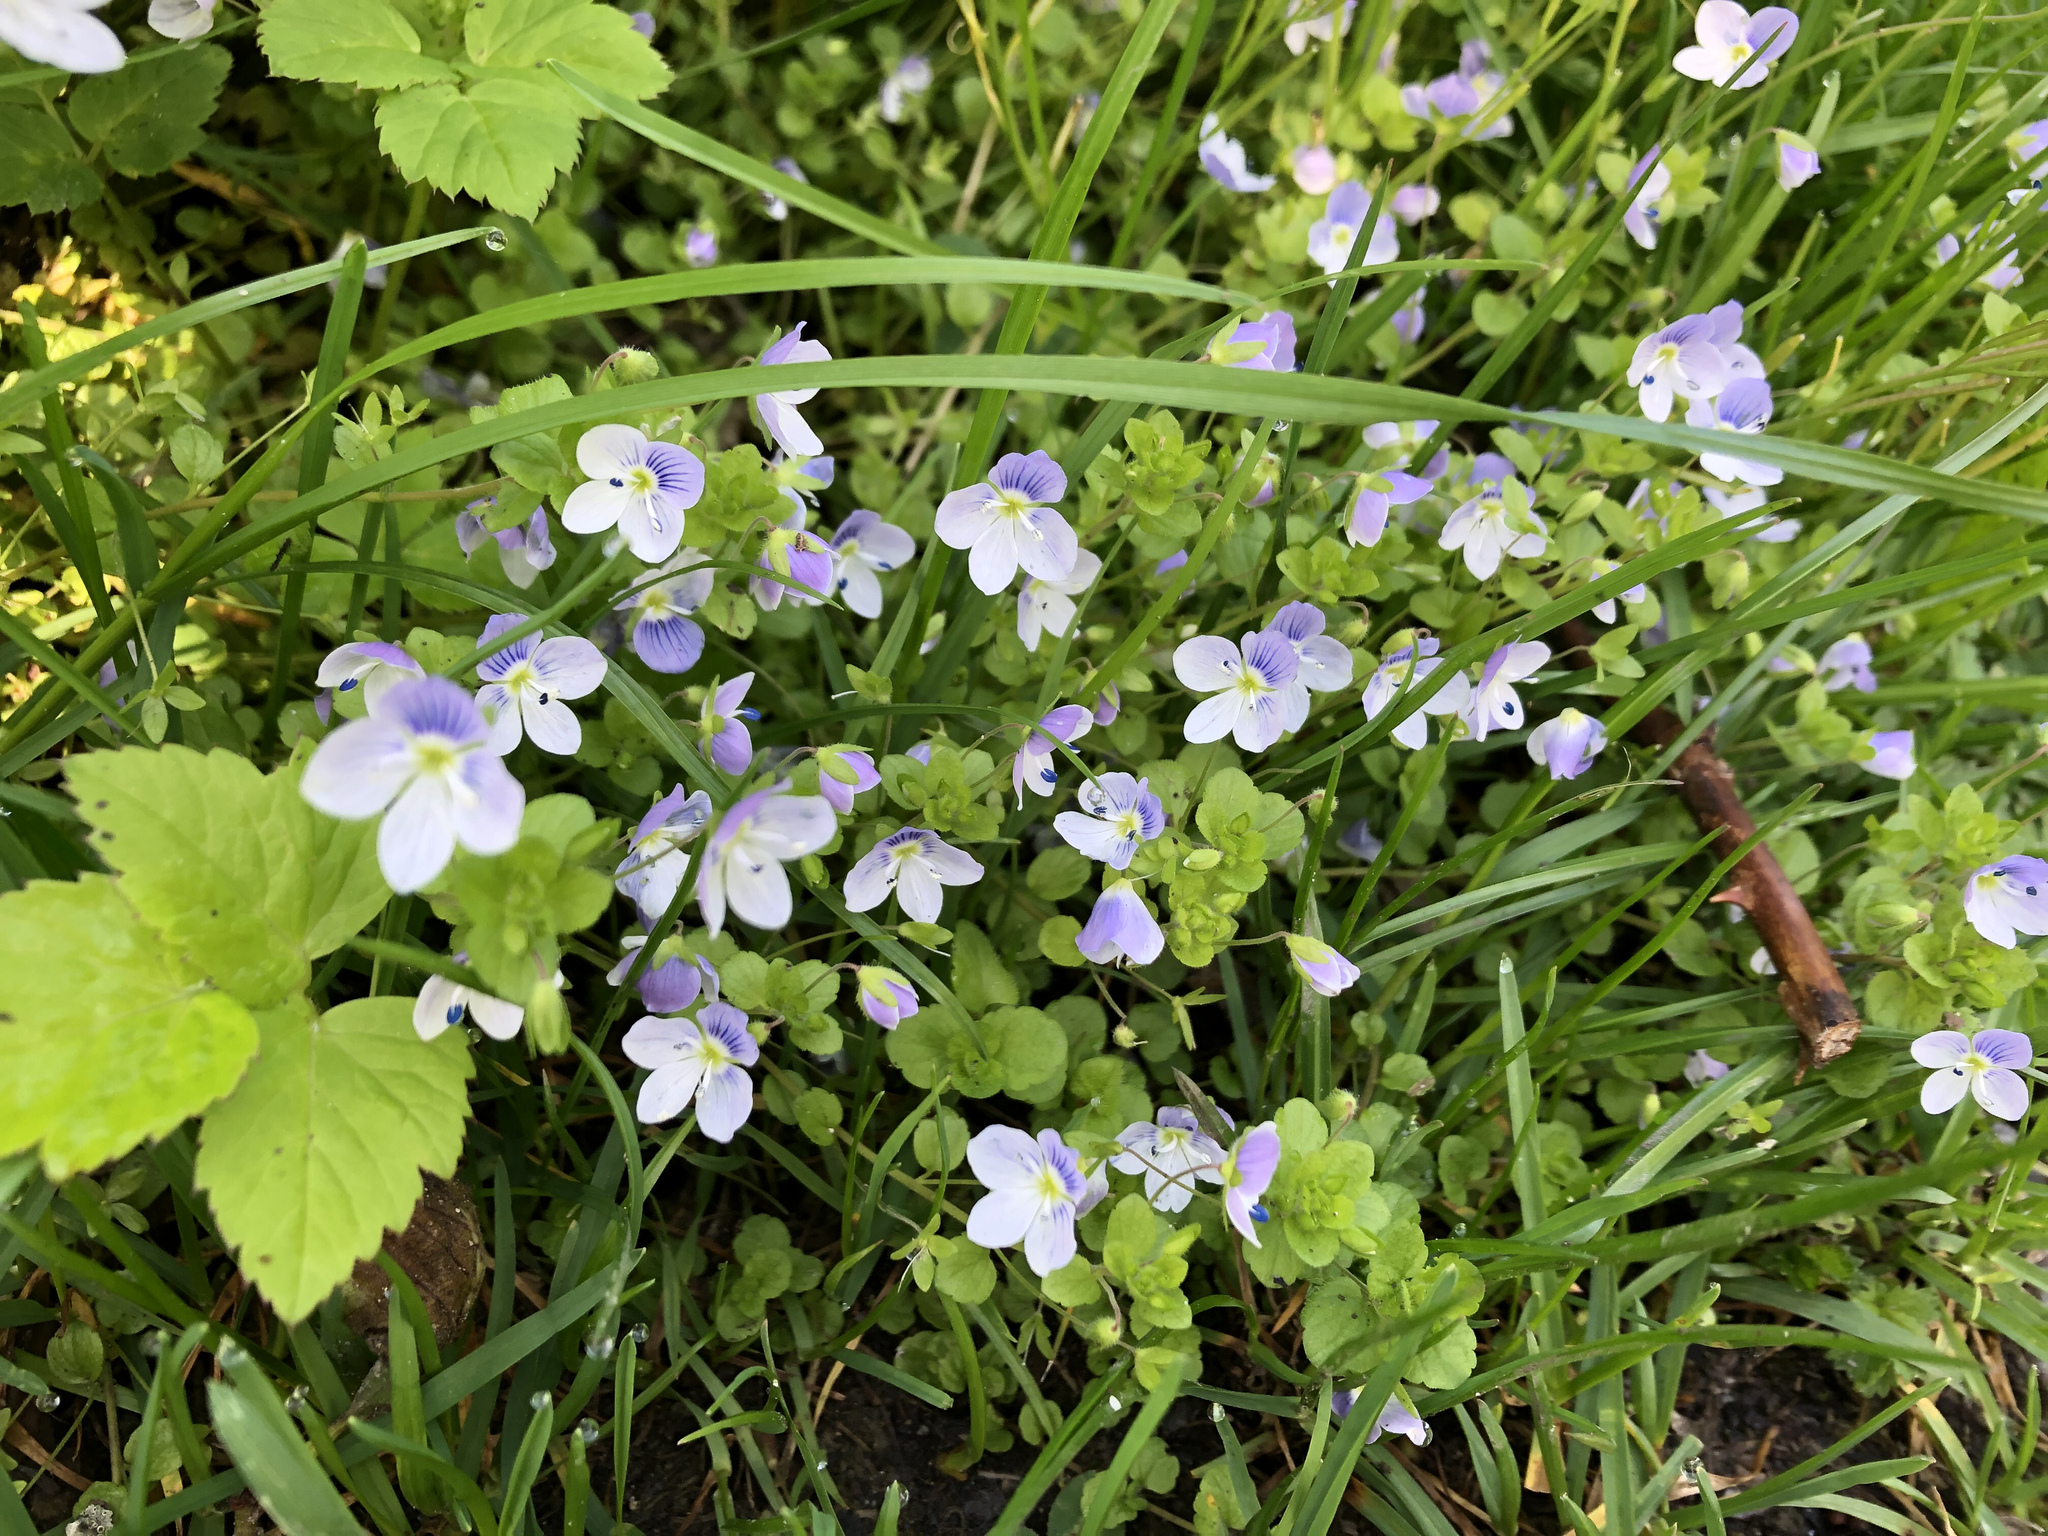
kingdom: Plantae
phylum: Tracheophyta
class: Magnoliopsida
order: Lamiales
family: Plantaginaceae
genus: Veronica
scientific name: Veronica filiformis
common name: Slender speedwell
